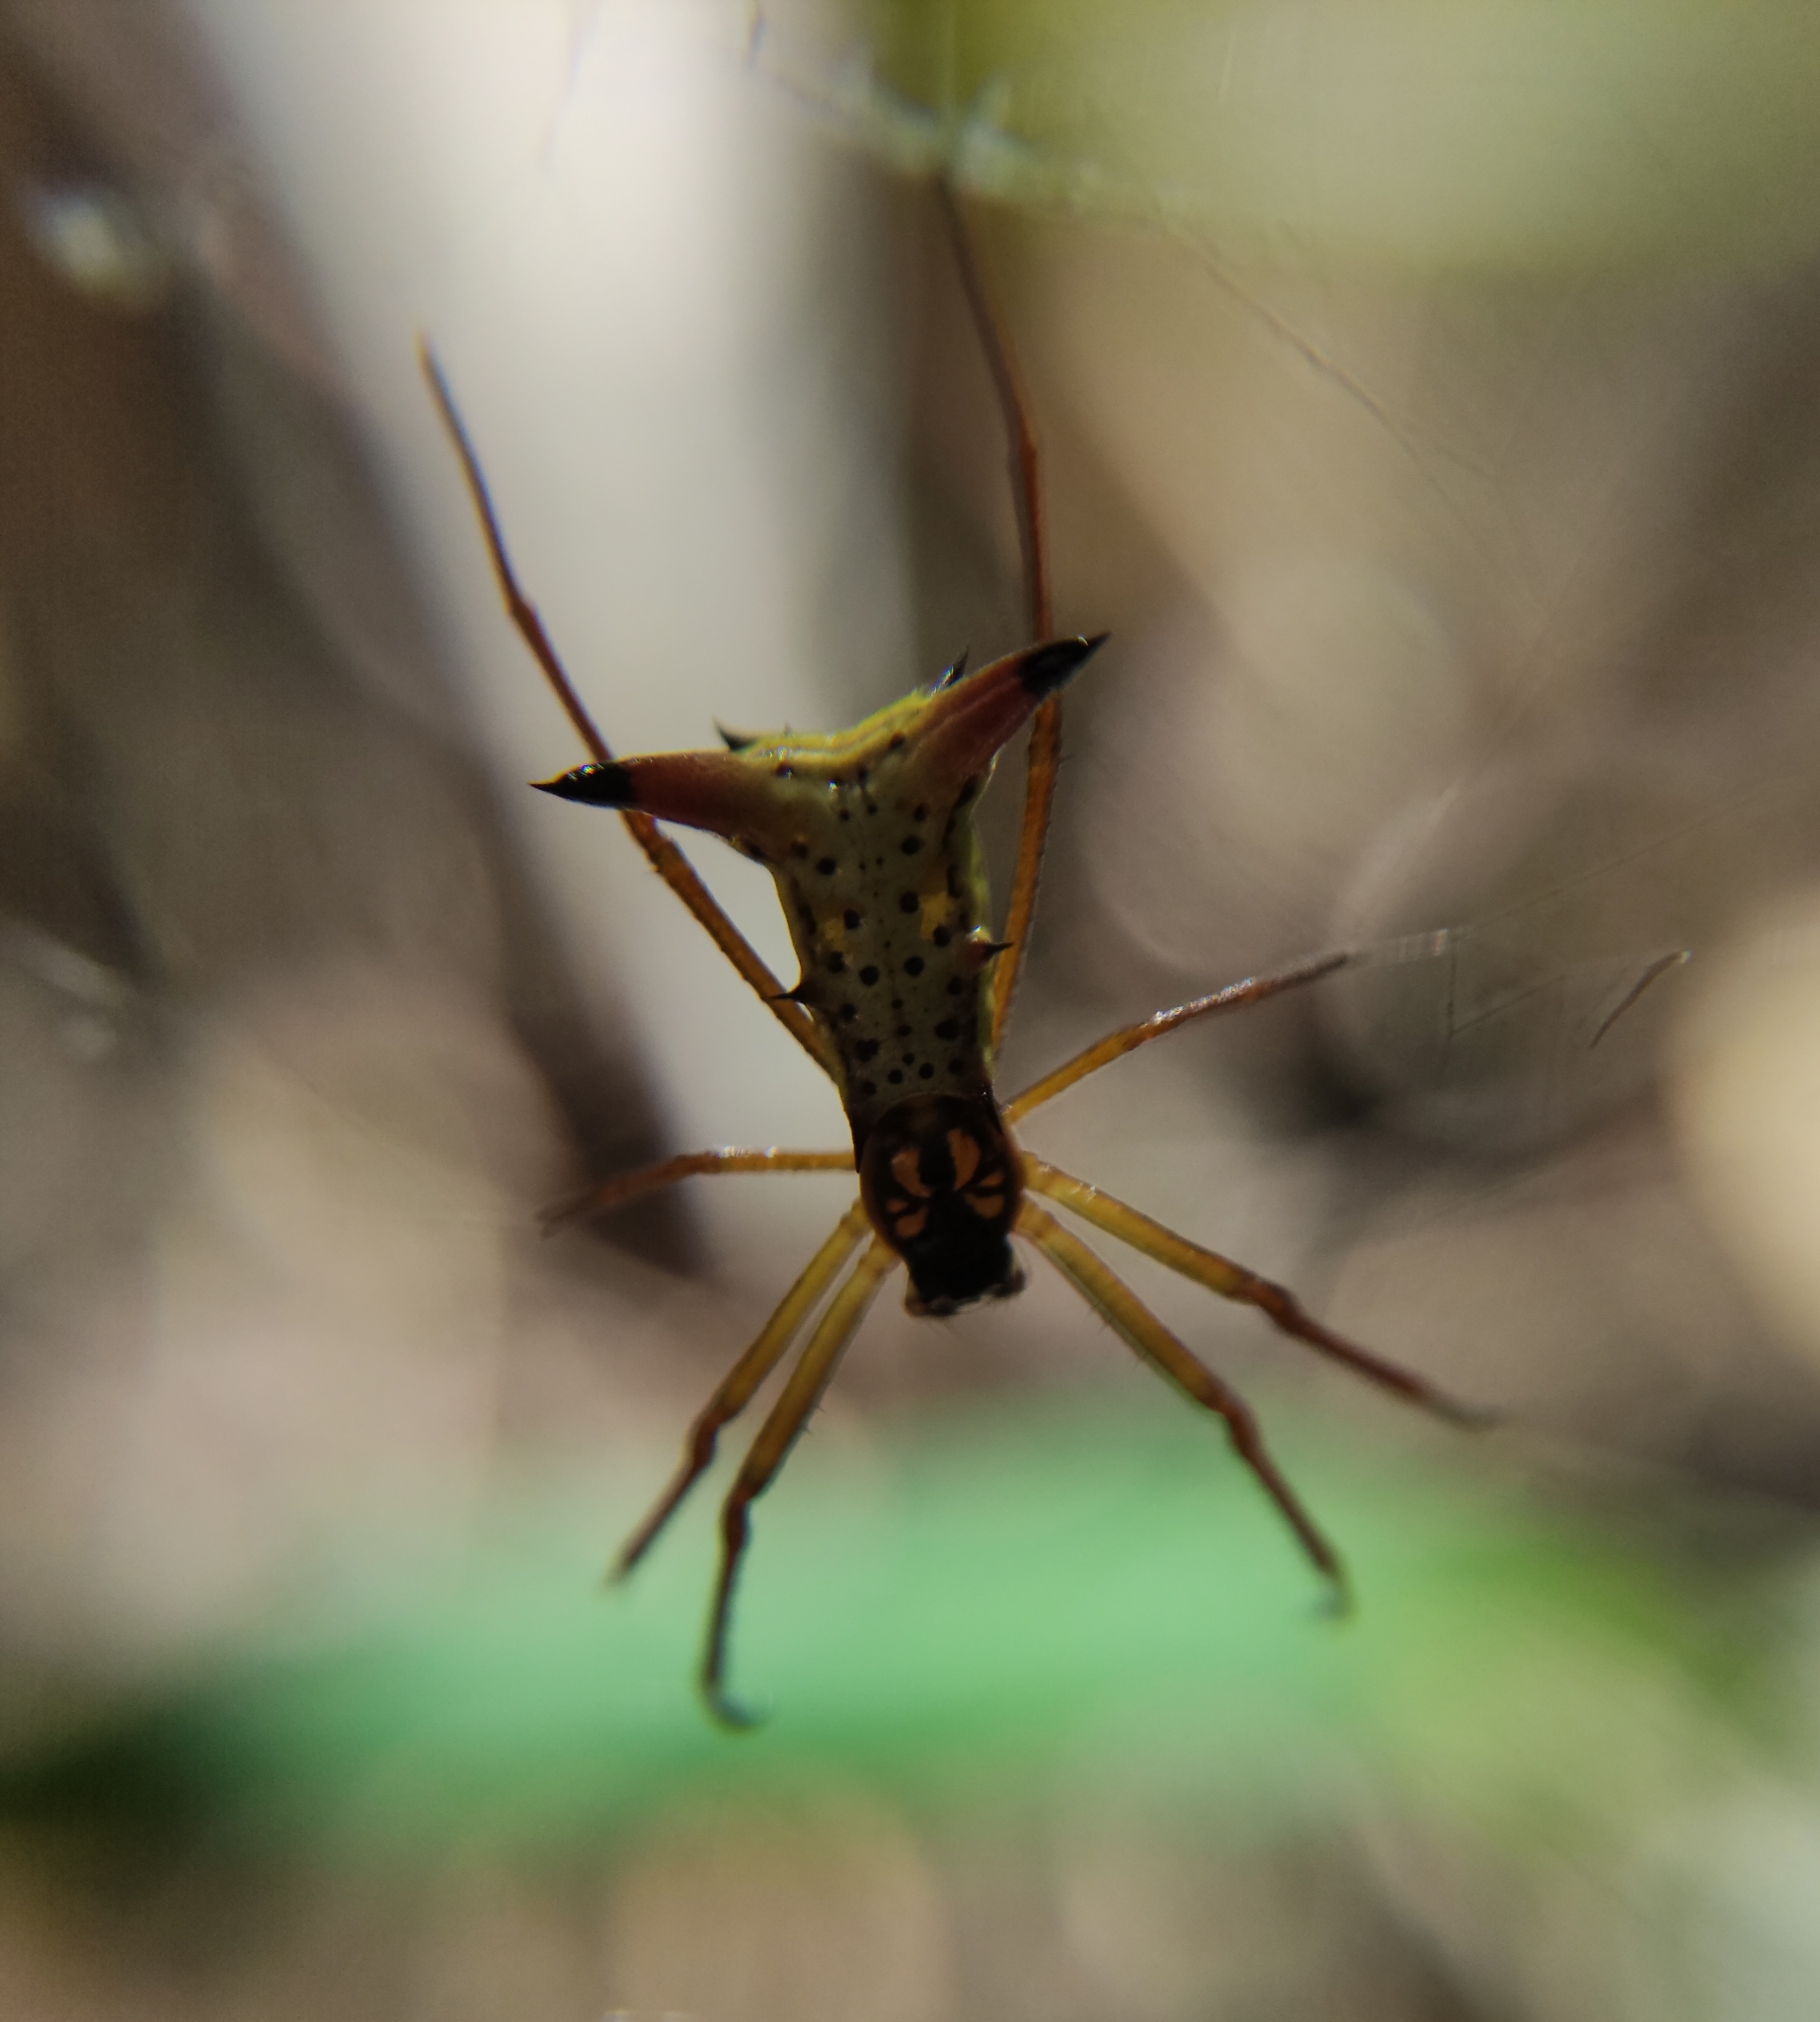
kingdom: Animalia
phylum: Arthropoda
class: Arachnida
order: Araneae
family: Araneidae
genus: Micrathena
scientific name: Micrathena sanctispiritus
